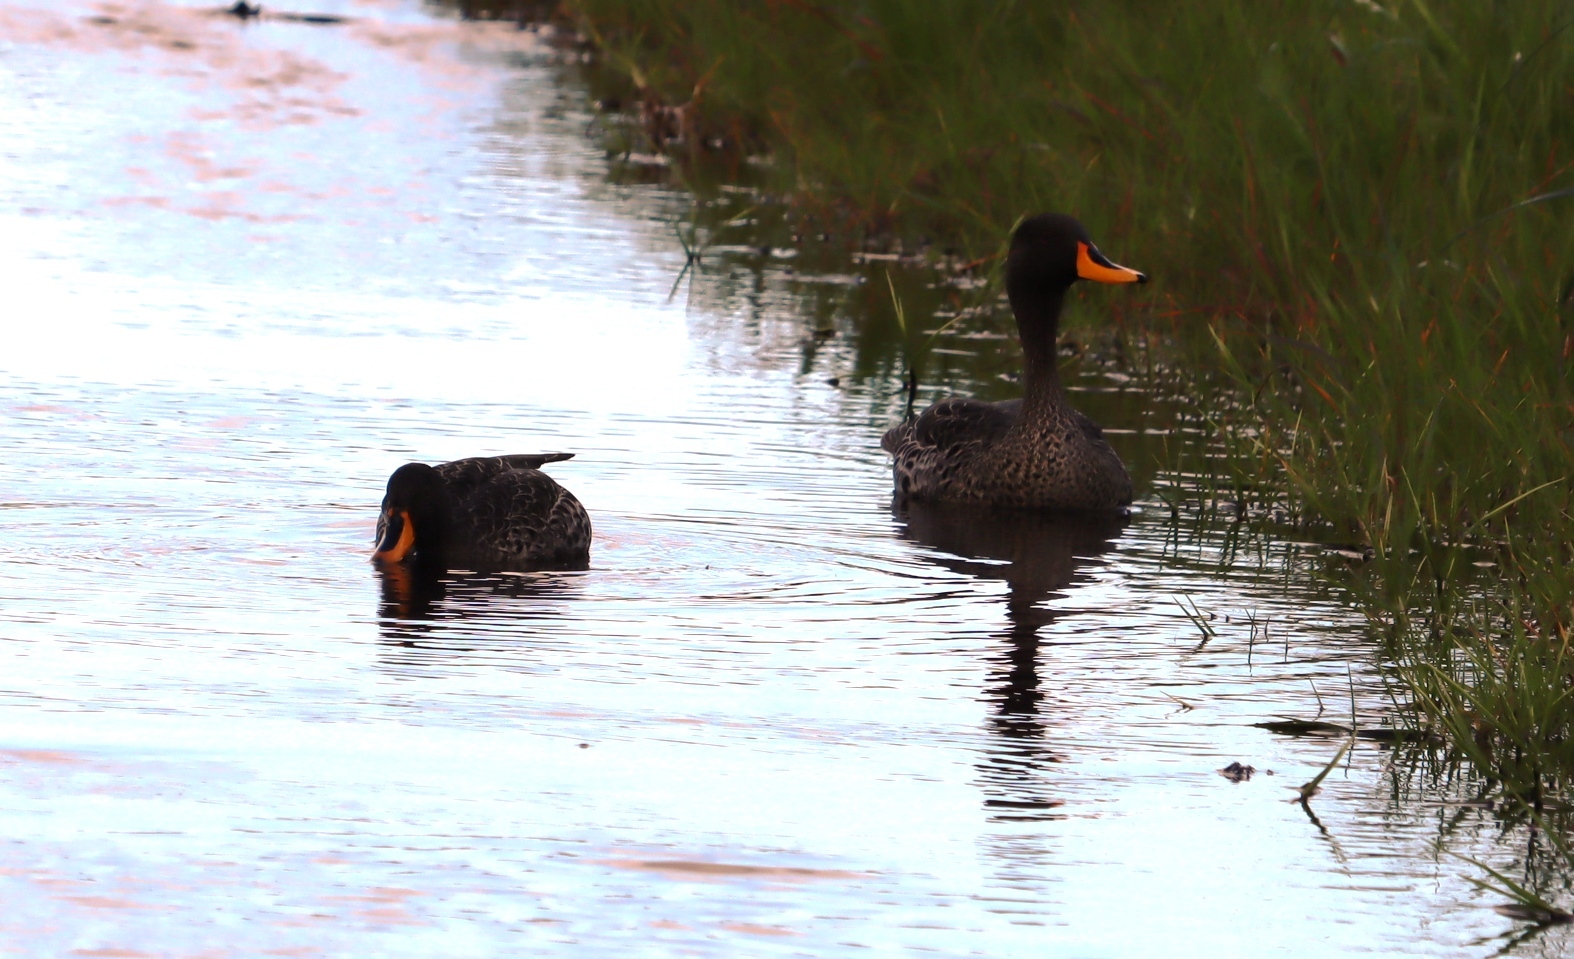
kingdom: Animalia
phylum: Chordata
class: Aves
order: Anseriformes
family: Anatidae
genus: Anas
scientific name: Anas undulata
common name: Yellow-billed duck
